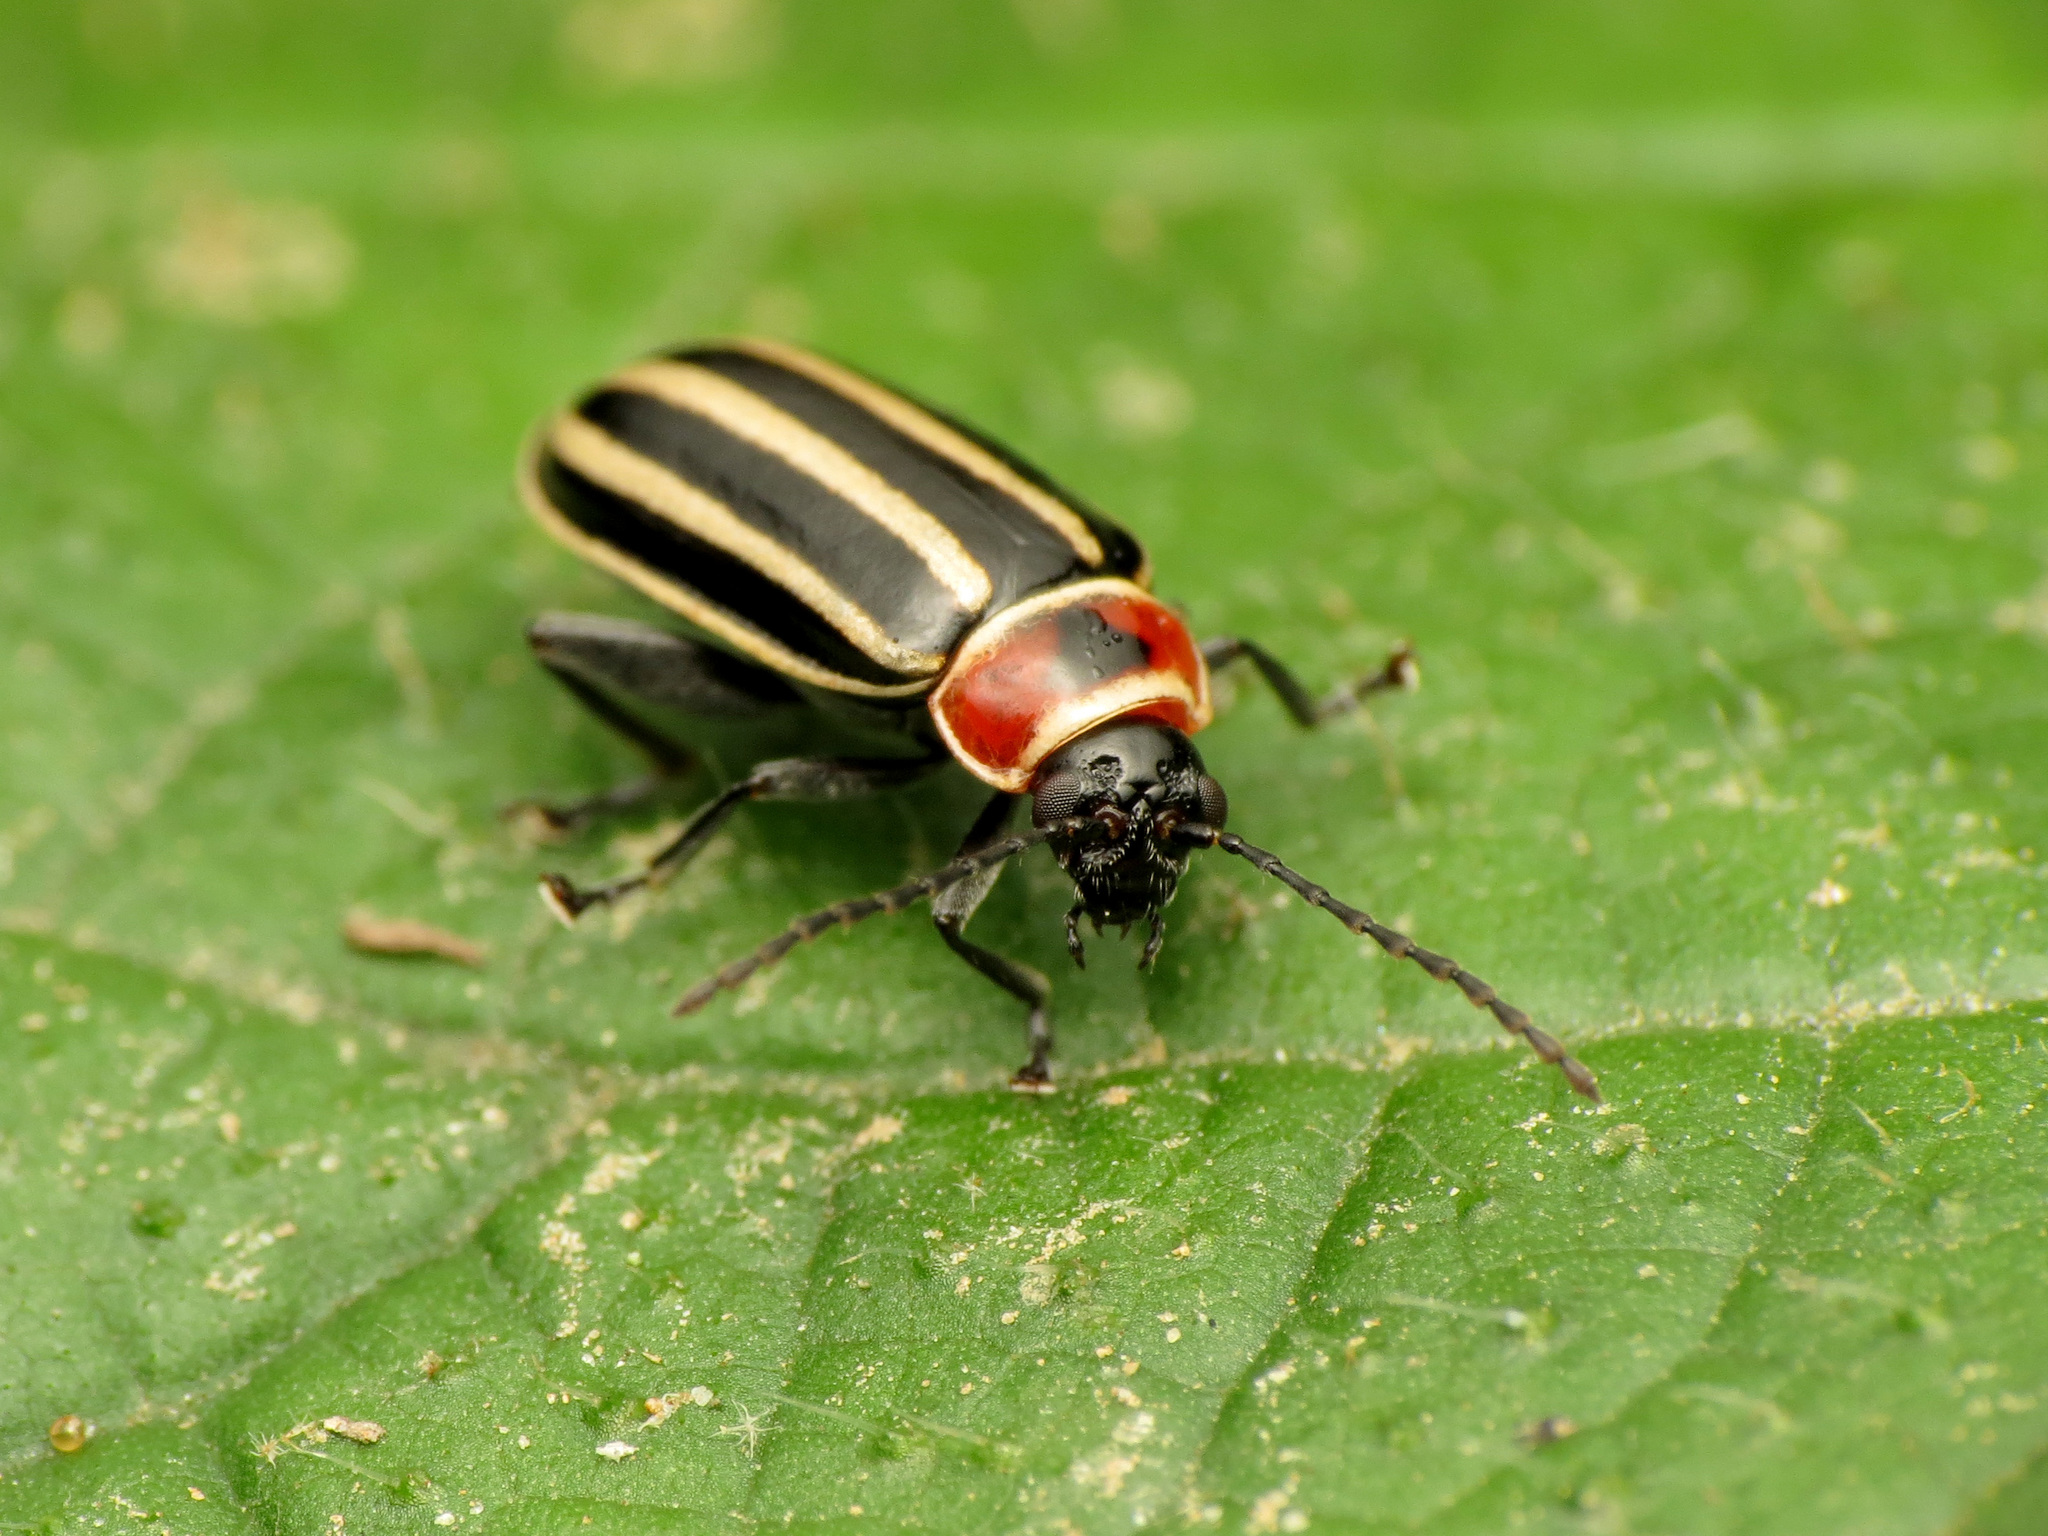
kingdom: Animalia
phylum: Arthropoda
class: Insecta
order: Coleoptera
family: Chrysomelidae
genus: Disonycha
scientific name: Disonycha pensylvanica
